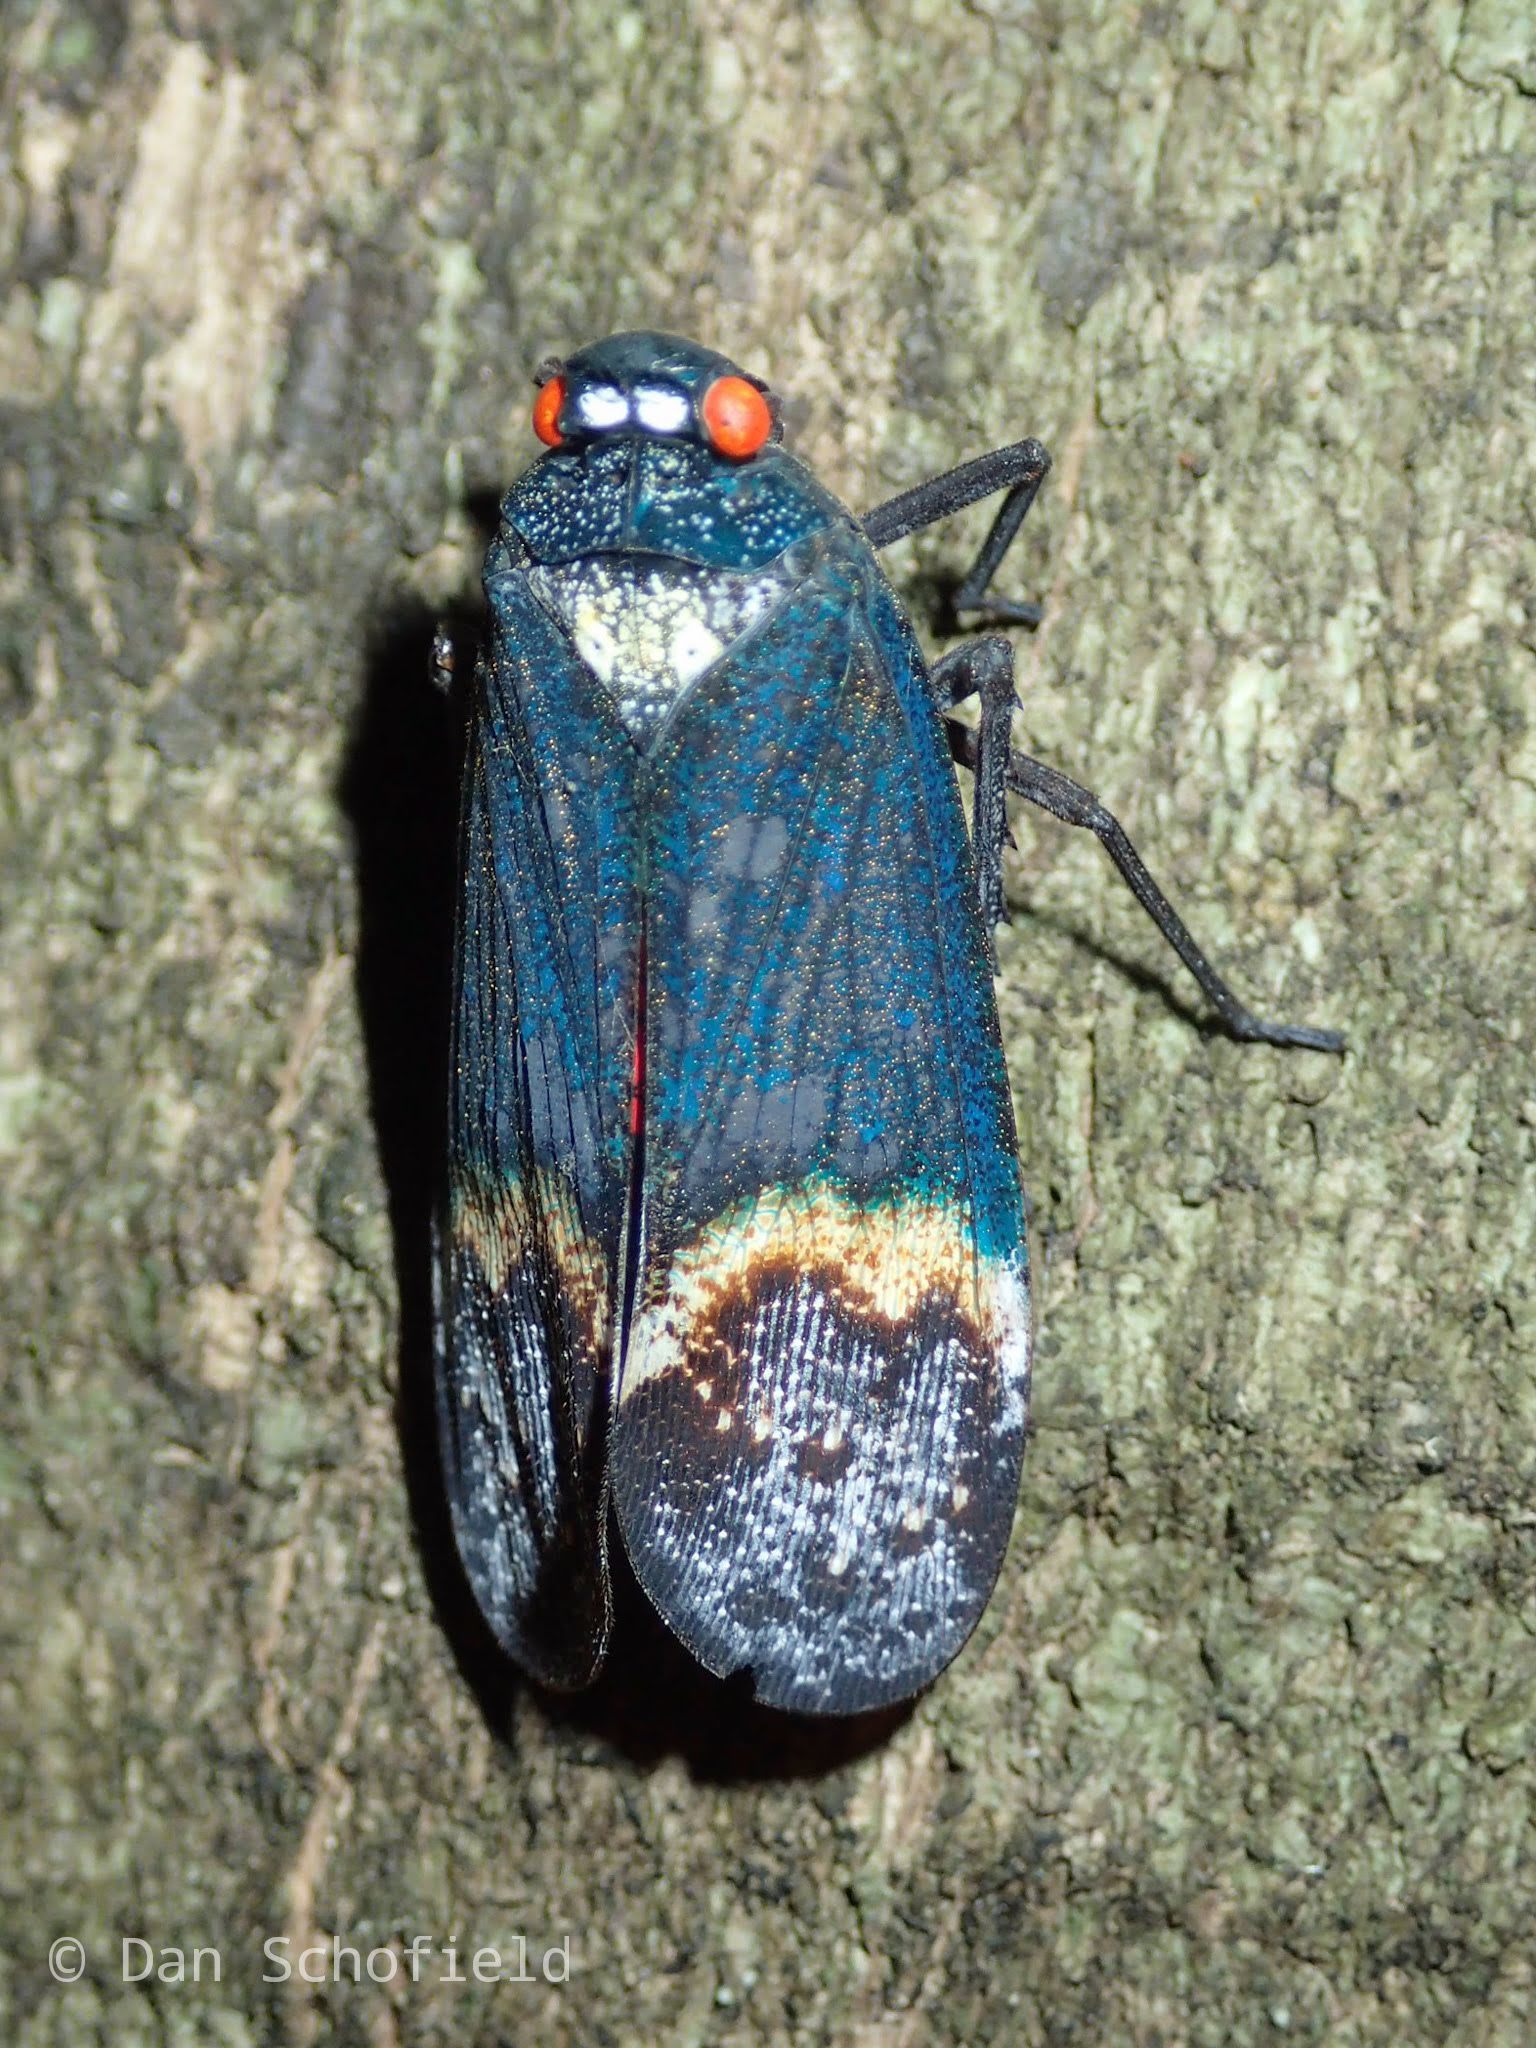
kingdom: Animalia
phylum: Arthropoda
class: Insecta
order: Hemiptera
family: Fulgoridae
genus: Penthicodes
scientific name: Penthicodes farinosa
